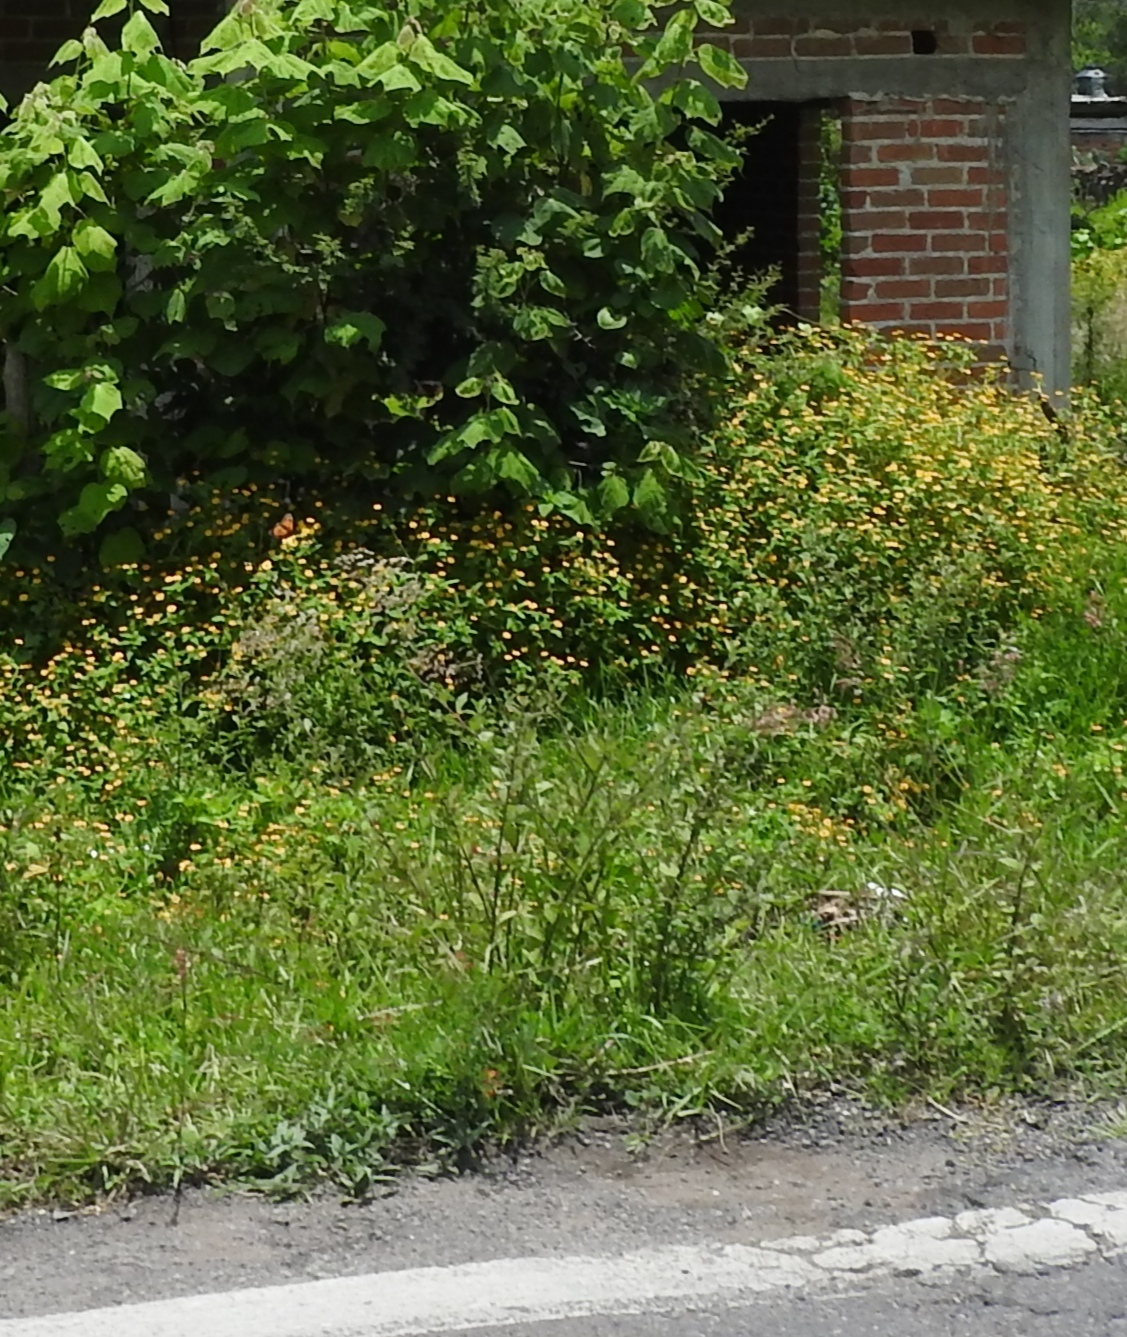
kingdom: Animalia
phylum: Arthropoda
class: Insecta
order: Lepidoptera
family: Nymphalidae
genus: Danaus
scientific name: Danaus plexippus
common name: Monarch
